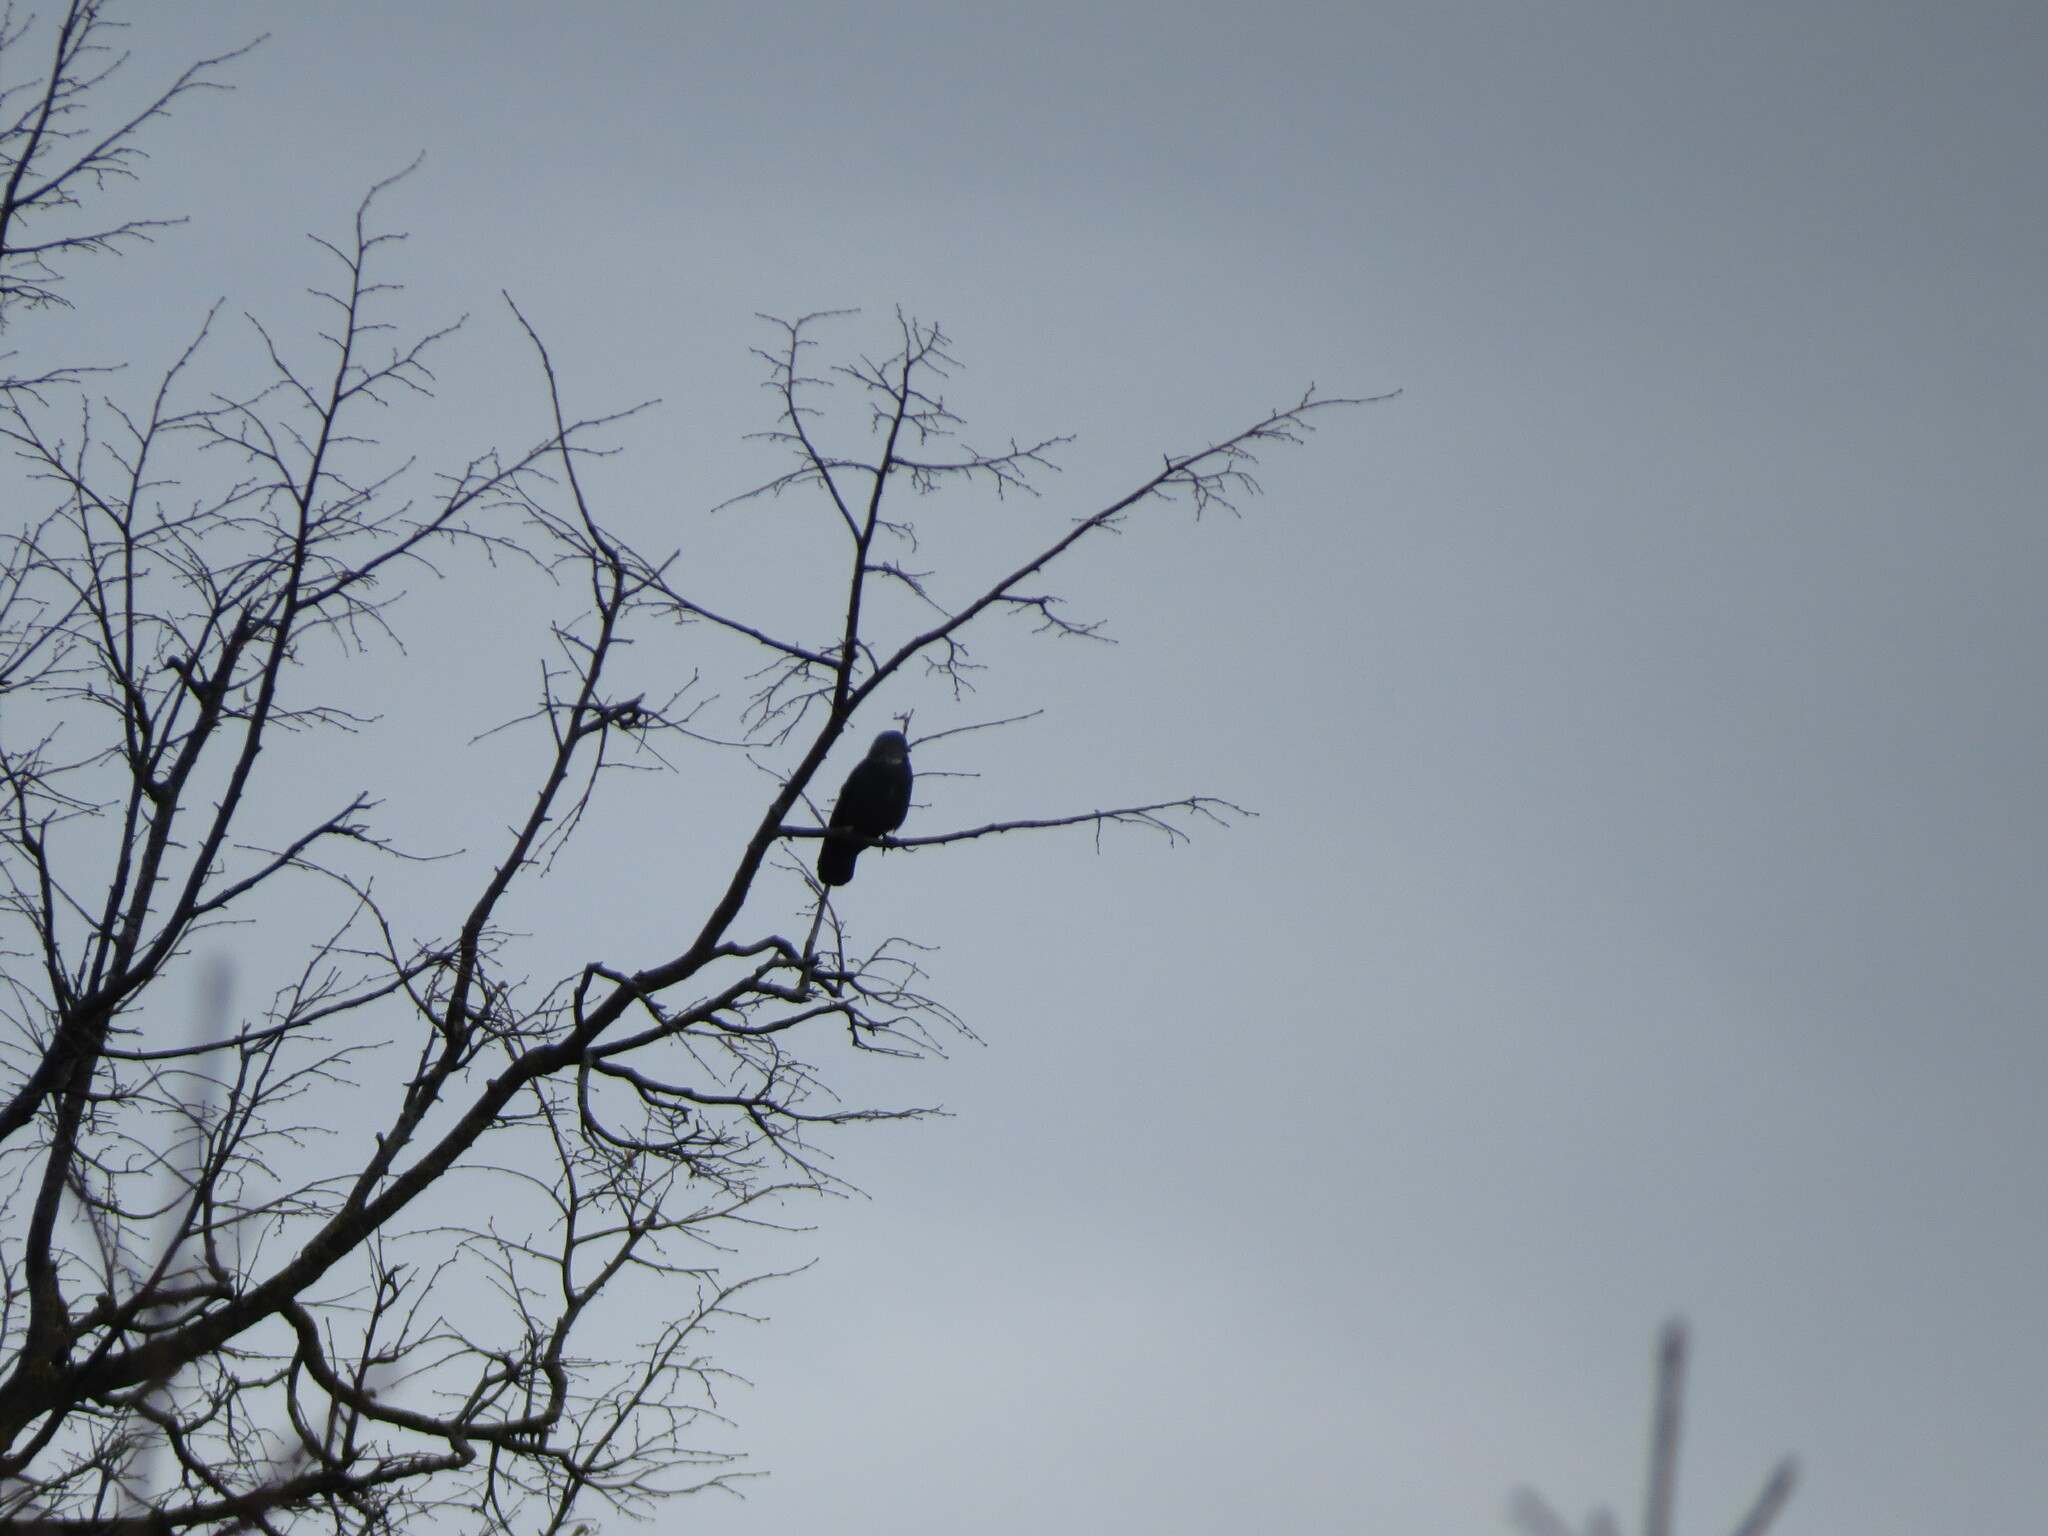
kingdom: Animalia
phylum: Chordata
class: Aves
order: Passeriformes
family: Corvidae
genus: Coloeus
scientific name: Coloeus monedula
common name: Western jackdaw
